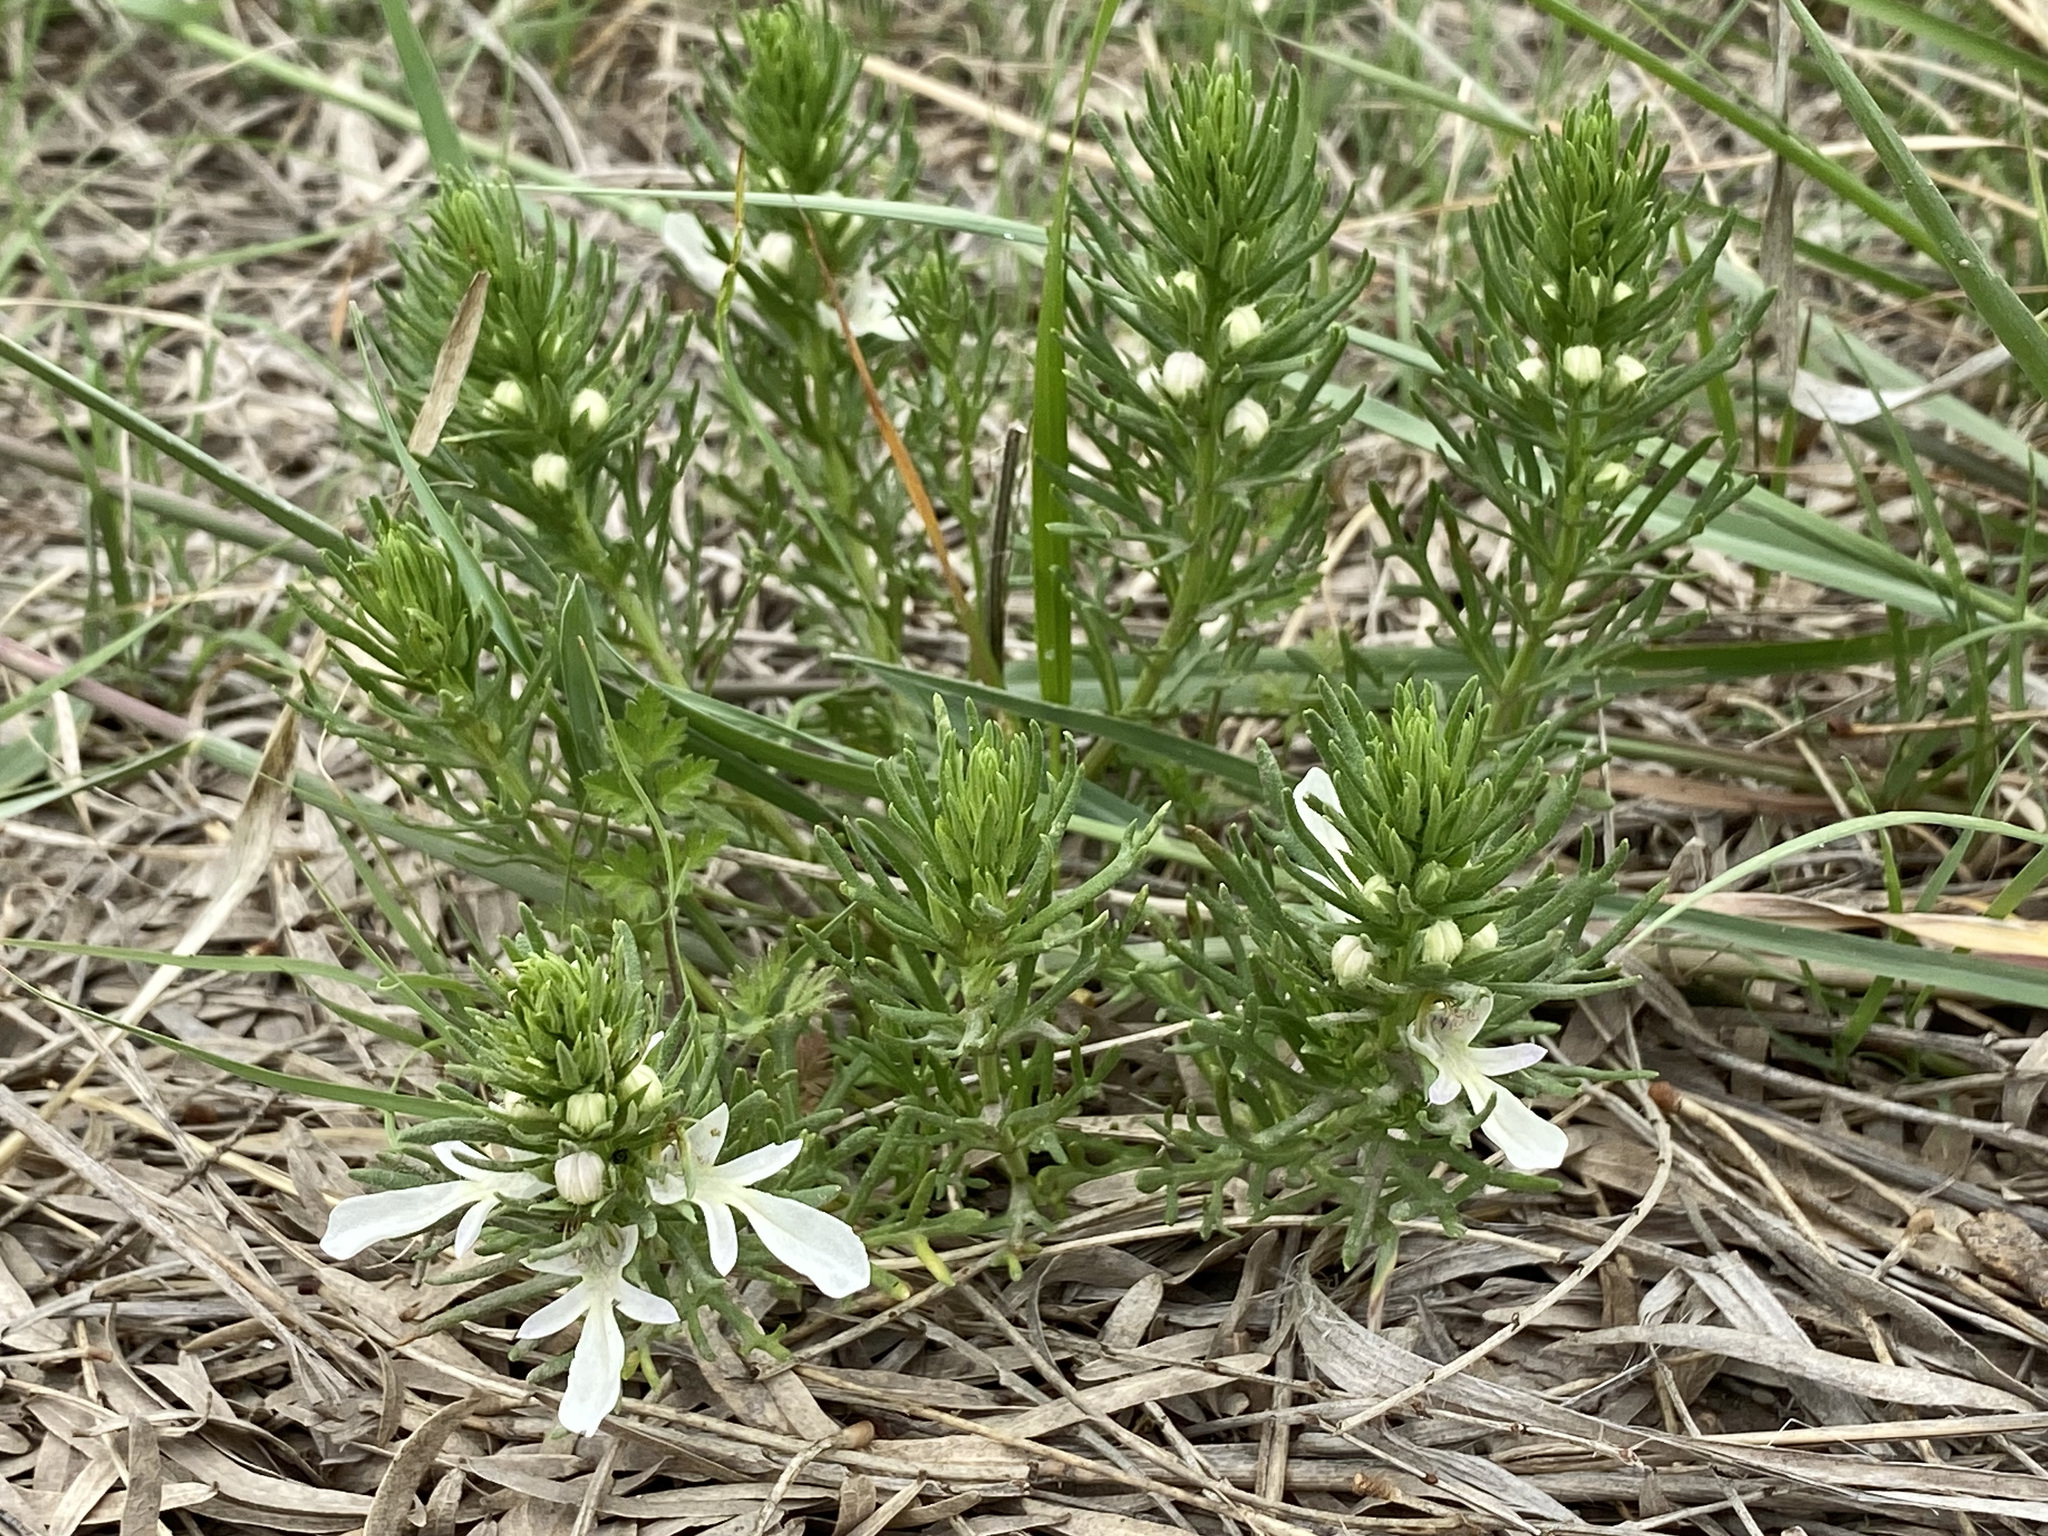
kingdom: Plantae
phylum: Tracheophyta
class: Magnoliopsida
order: Lamiales
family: Lamiaceae
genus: Teucrium
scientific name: Teucrium laciniatum
